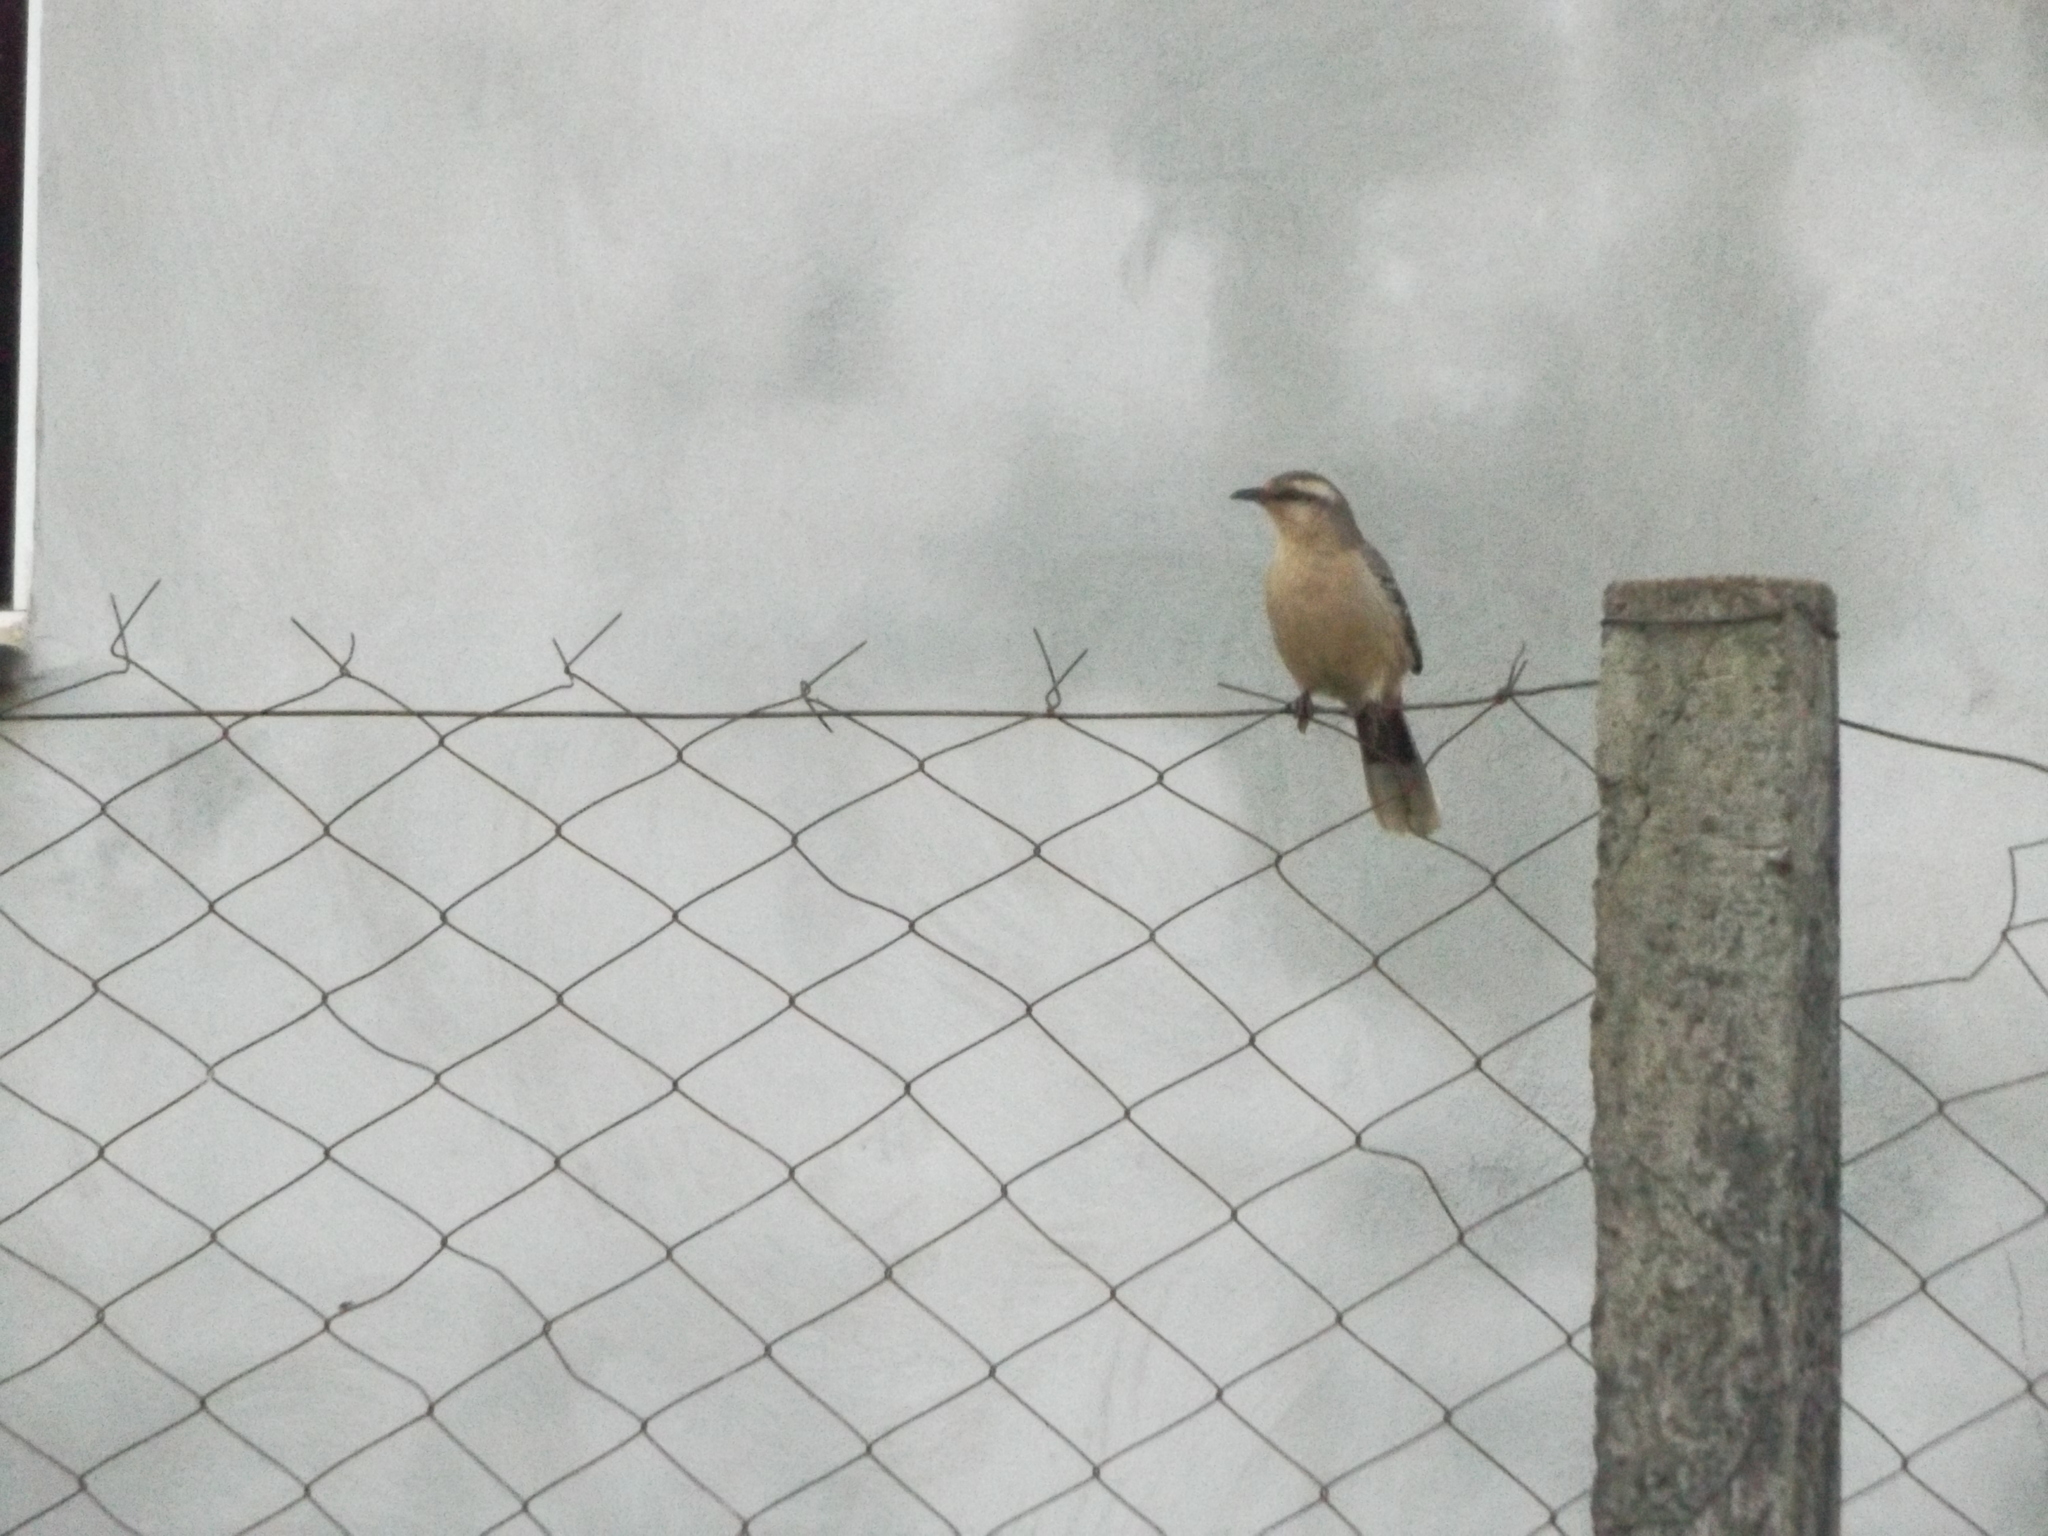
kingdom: Animalia
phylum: Chordata
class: Aves
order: Passeriformes
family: Mimidae
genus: Mimus
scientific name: Mimus saturninus
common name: Chalk-browed mockingbird
